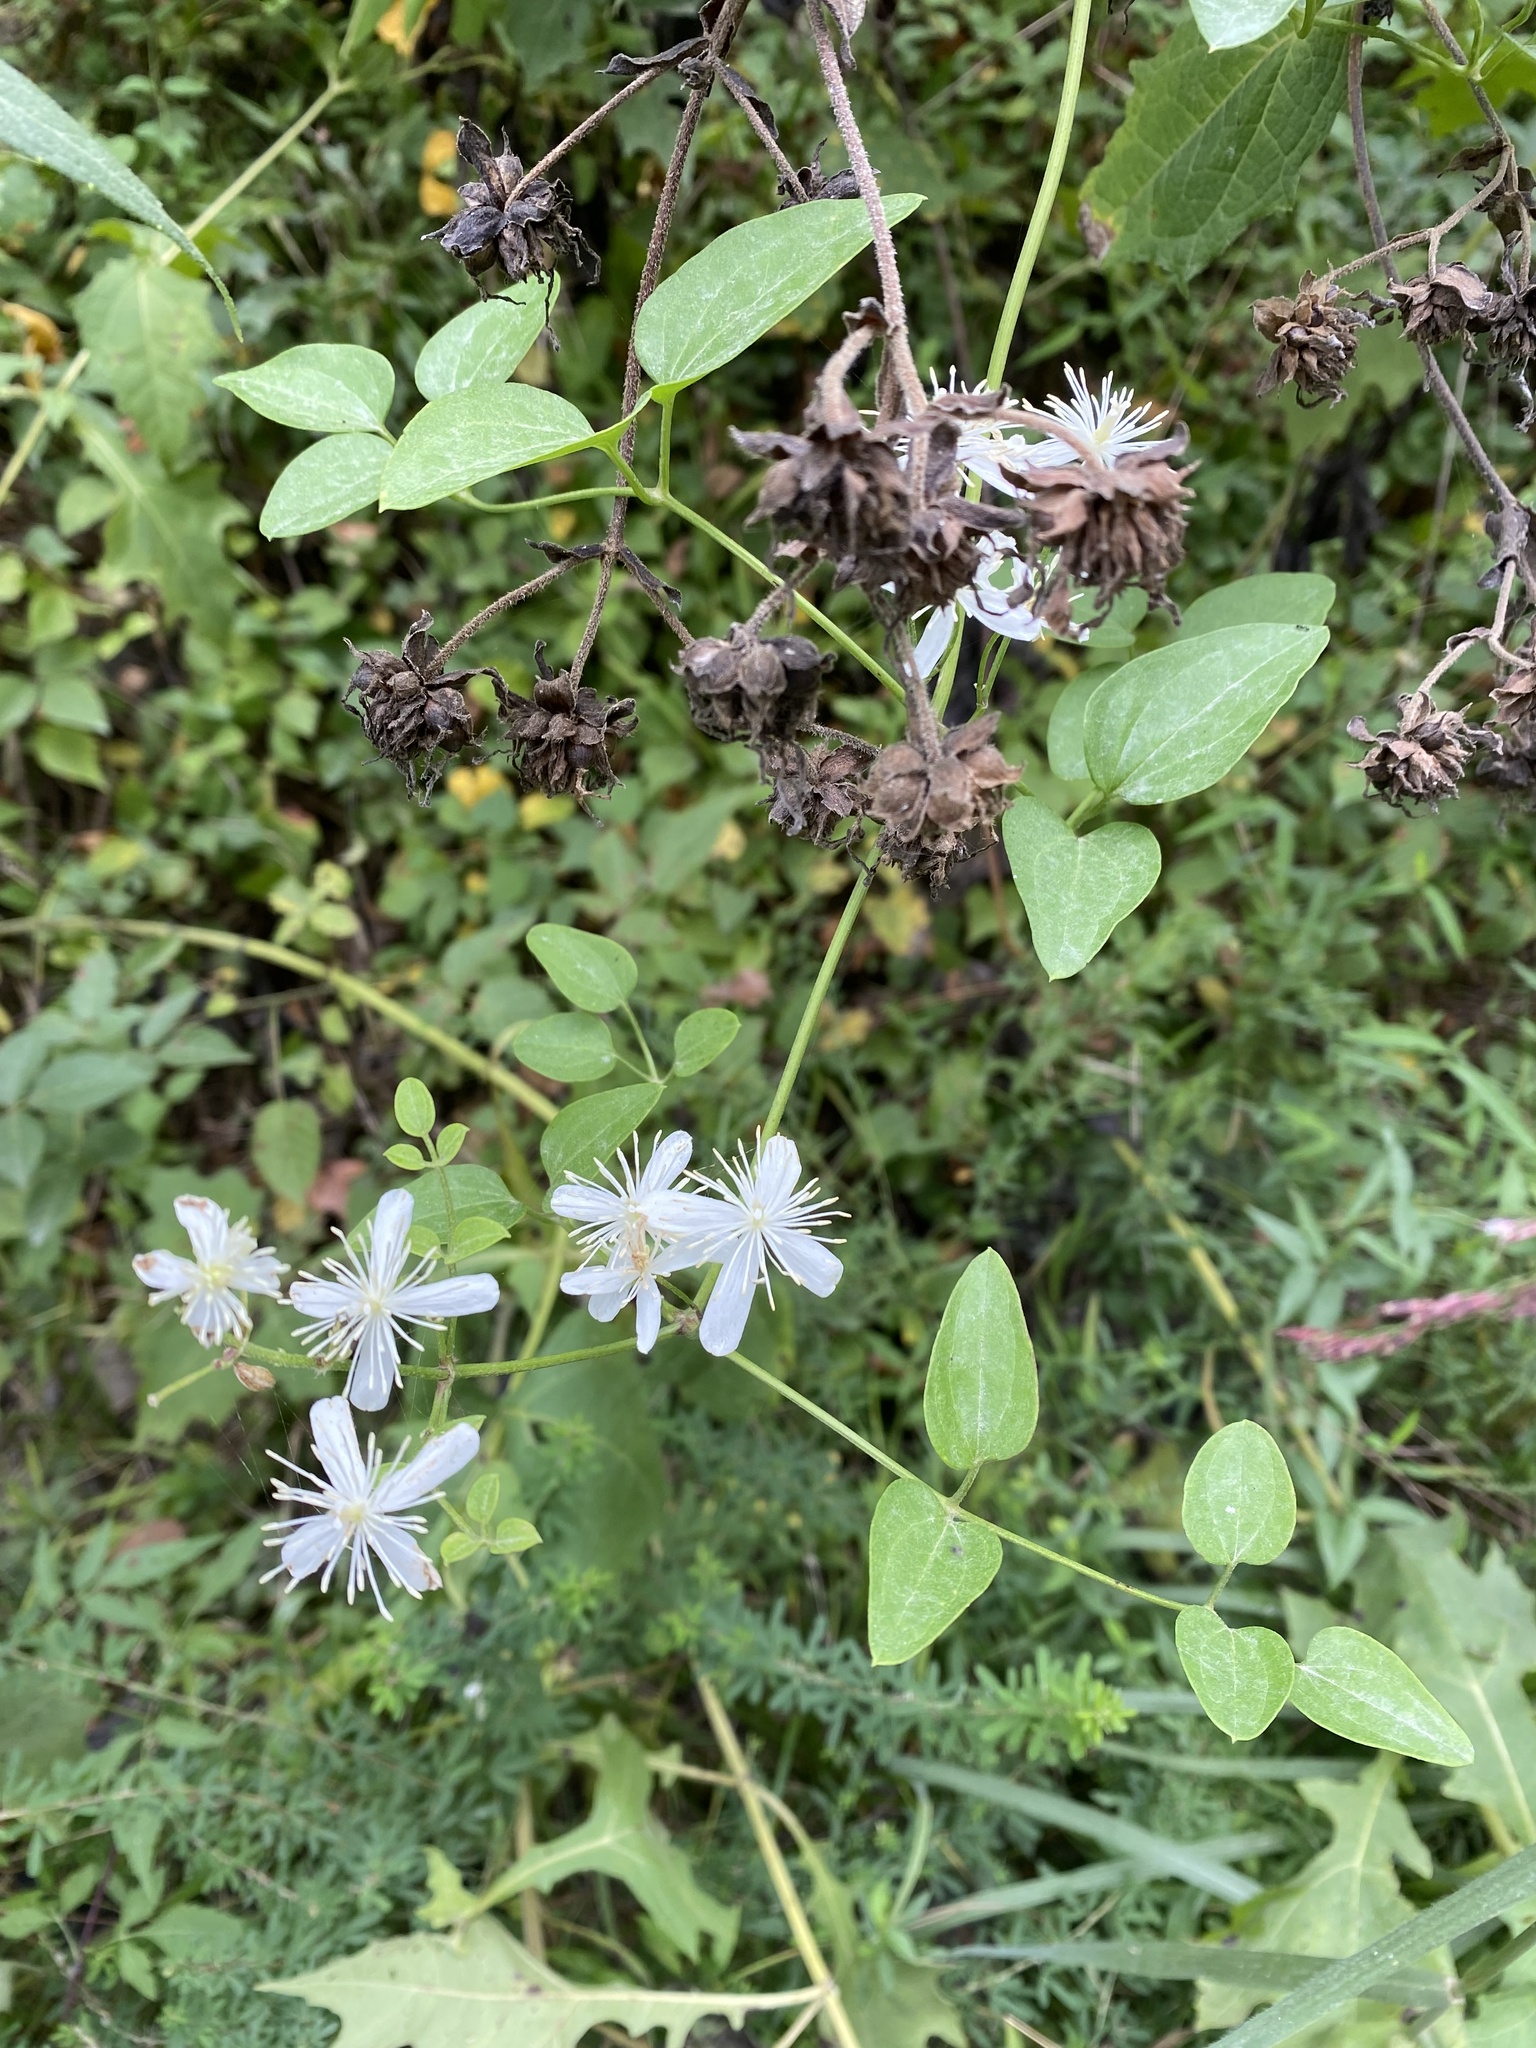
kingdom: Plantae
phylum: Tracheophyta
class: Magnoliopsida
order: Ranunculales
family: Ranunculaceae
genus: Clematis
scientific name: Clematis terniflora
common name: Sweet autumn clematis
